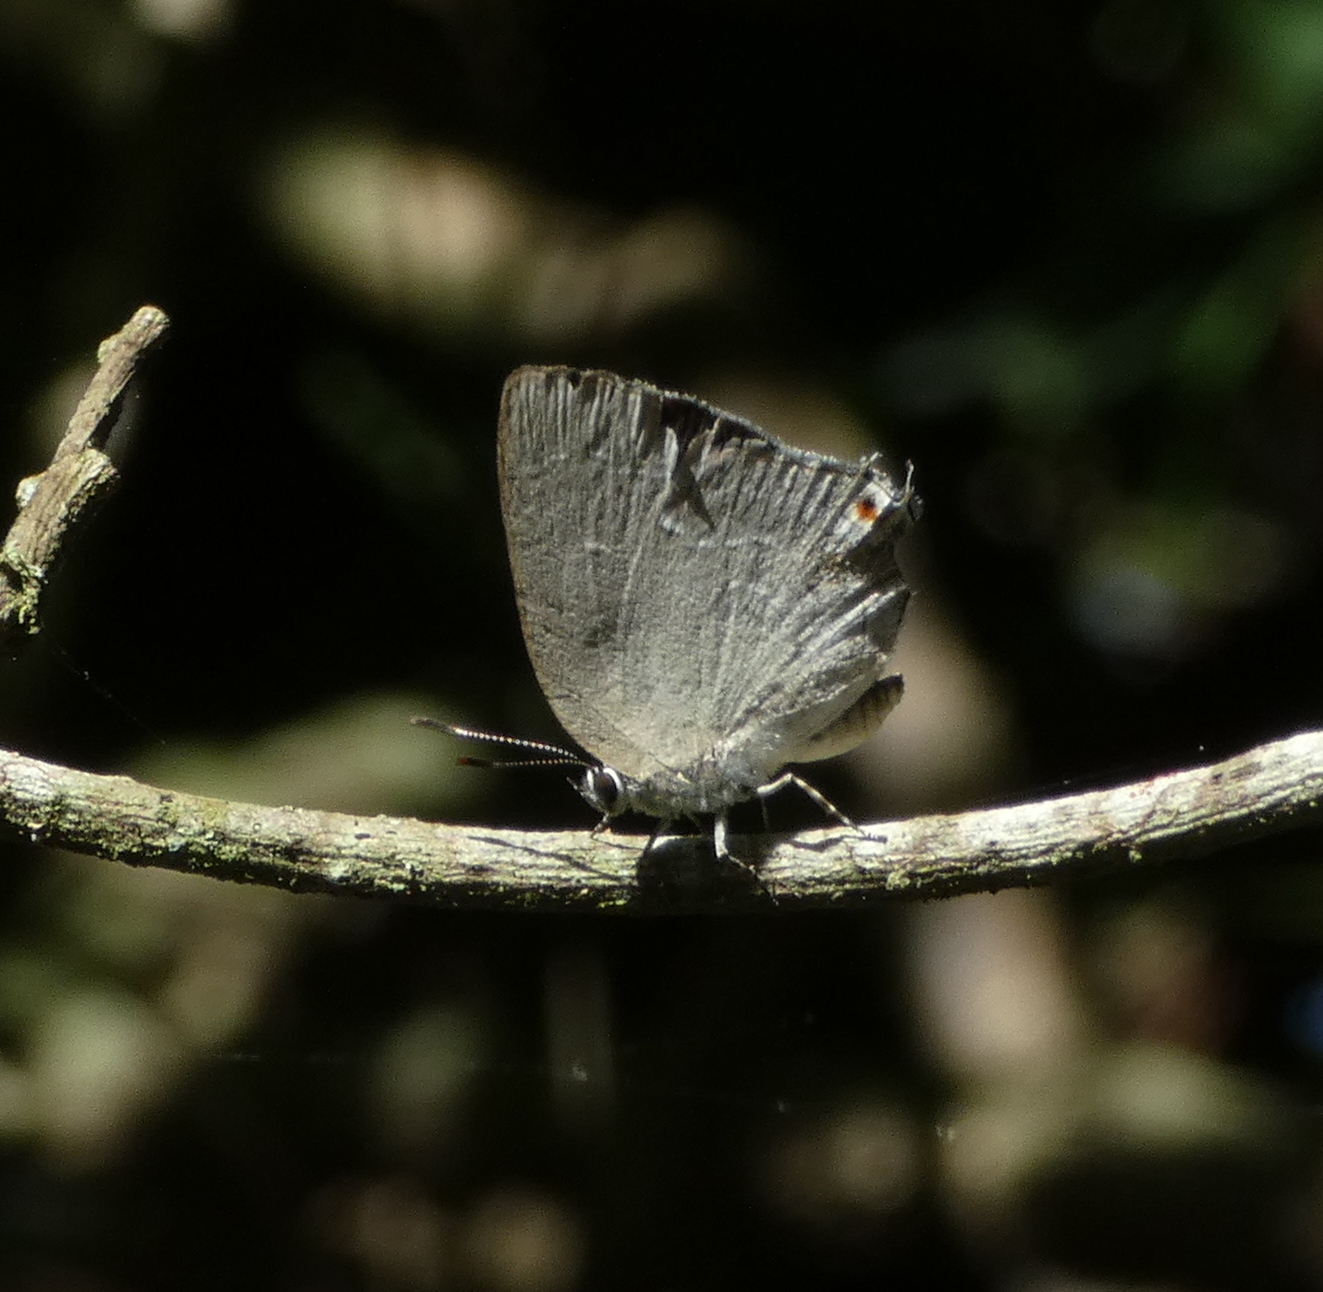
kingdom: Animalia
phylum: Arthropoda
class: Insecta
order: Lepidoptera
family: Lycaenidae
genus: Strephonota
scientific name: Strephonota tephraeus
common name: Pearly-gray hairstreak
